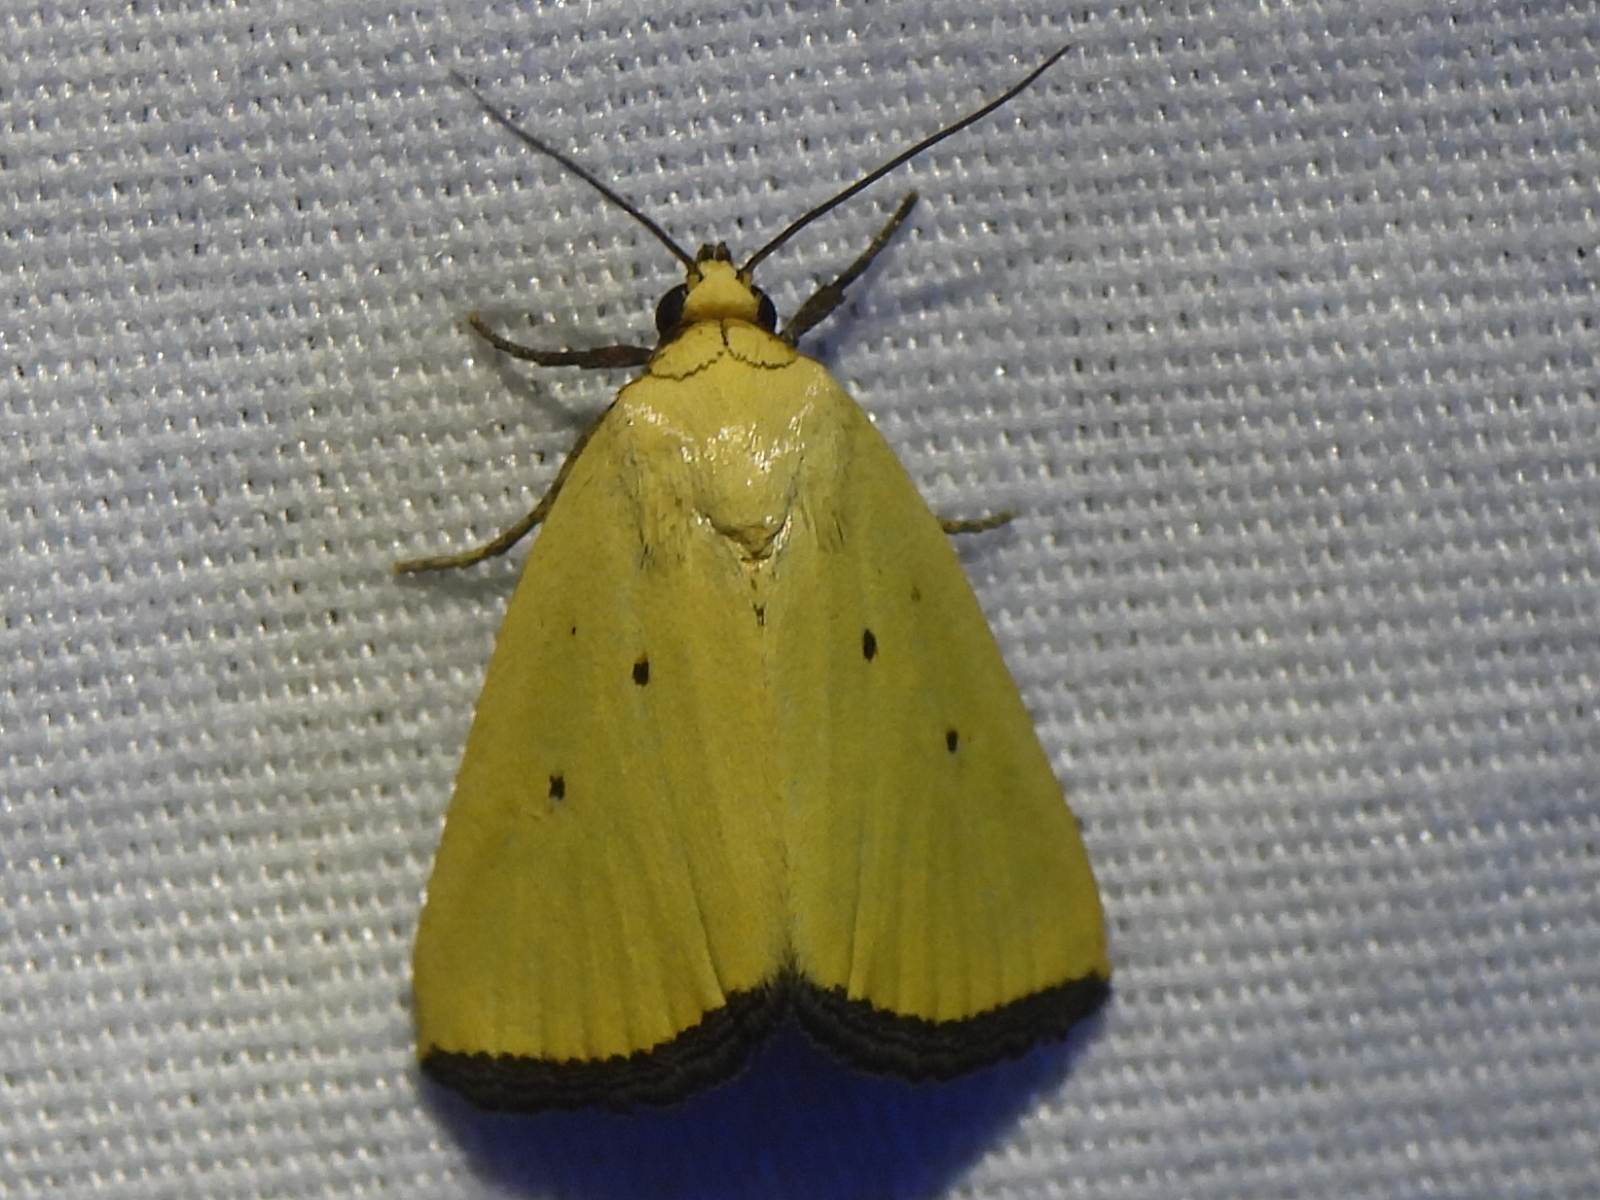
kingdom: Animalia
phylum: Arthropoda
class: Insecta
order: Lepidoptera
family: Noctuidae
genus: Marimatha
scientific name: Marimatha nigrofimbria
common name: Black-bordered lemon moth
